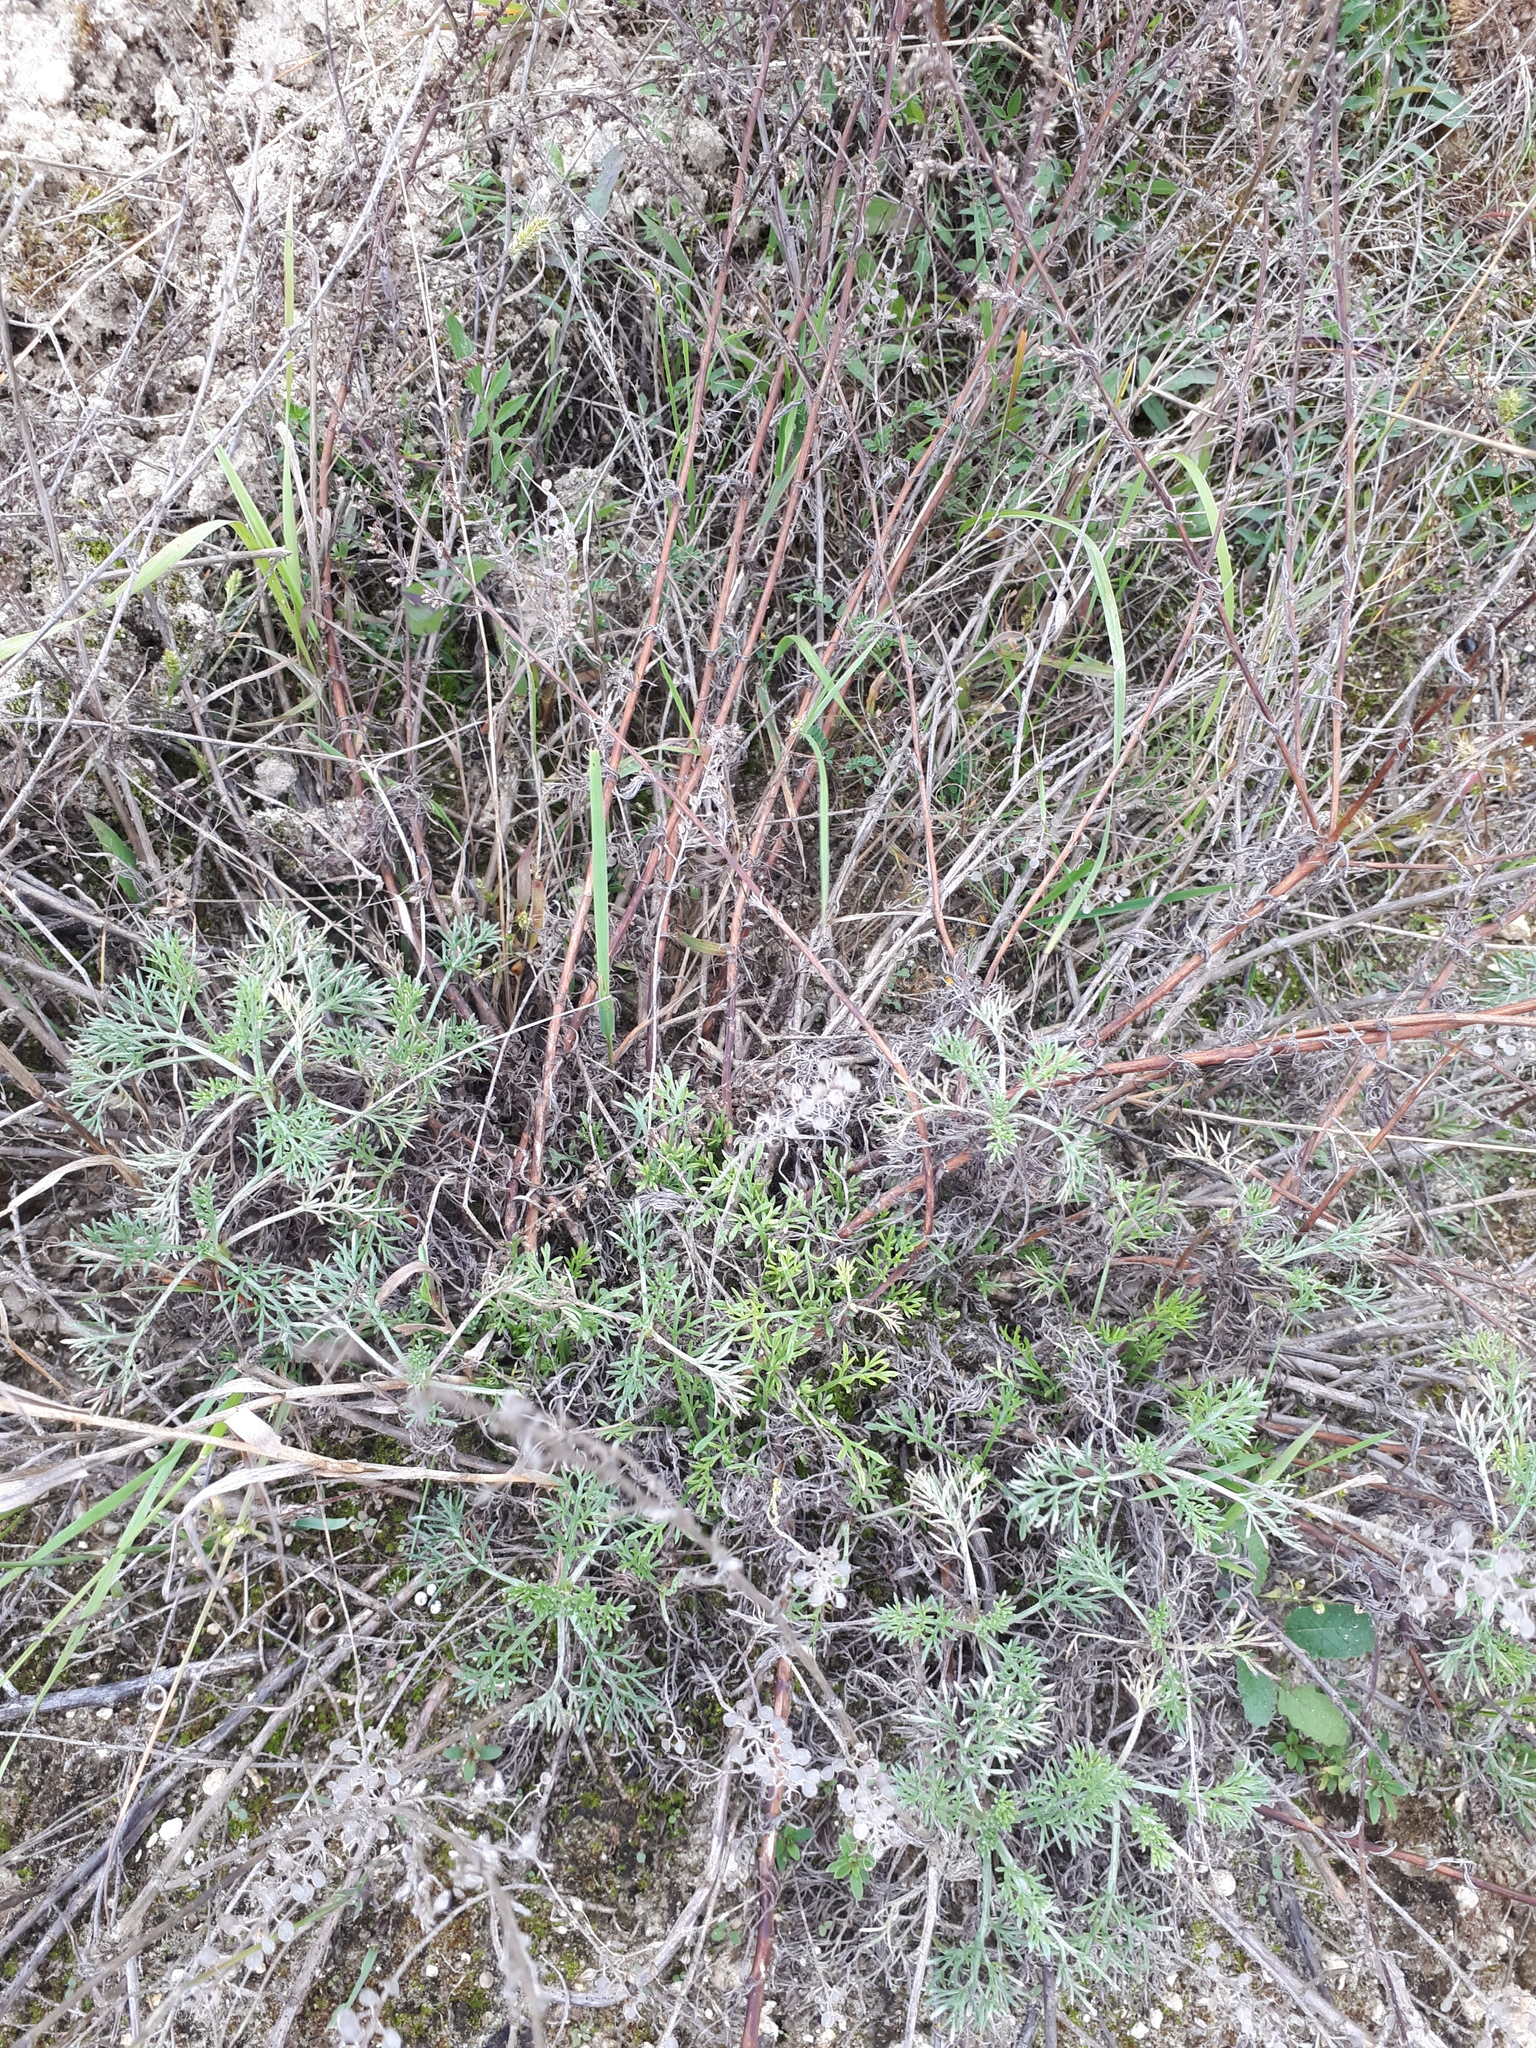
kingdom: Plantae
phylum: Tracheophyta
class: Magnoliopsida
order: Asterales
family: Asteraceae
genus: Artemisia
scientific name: Artemisia marschalliana
